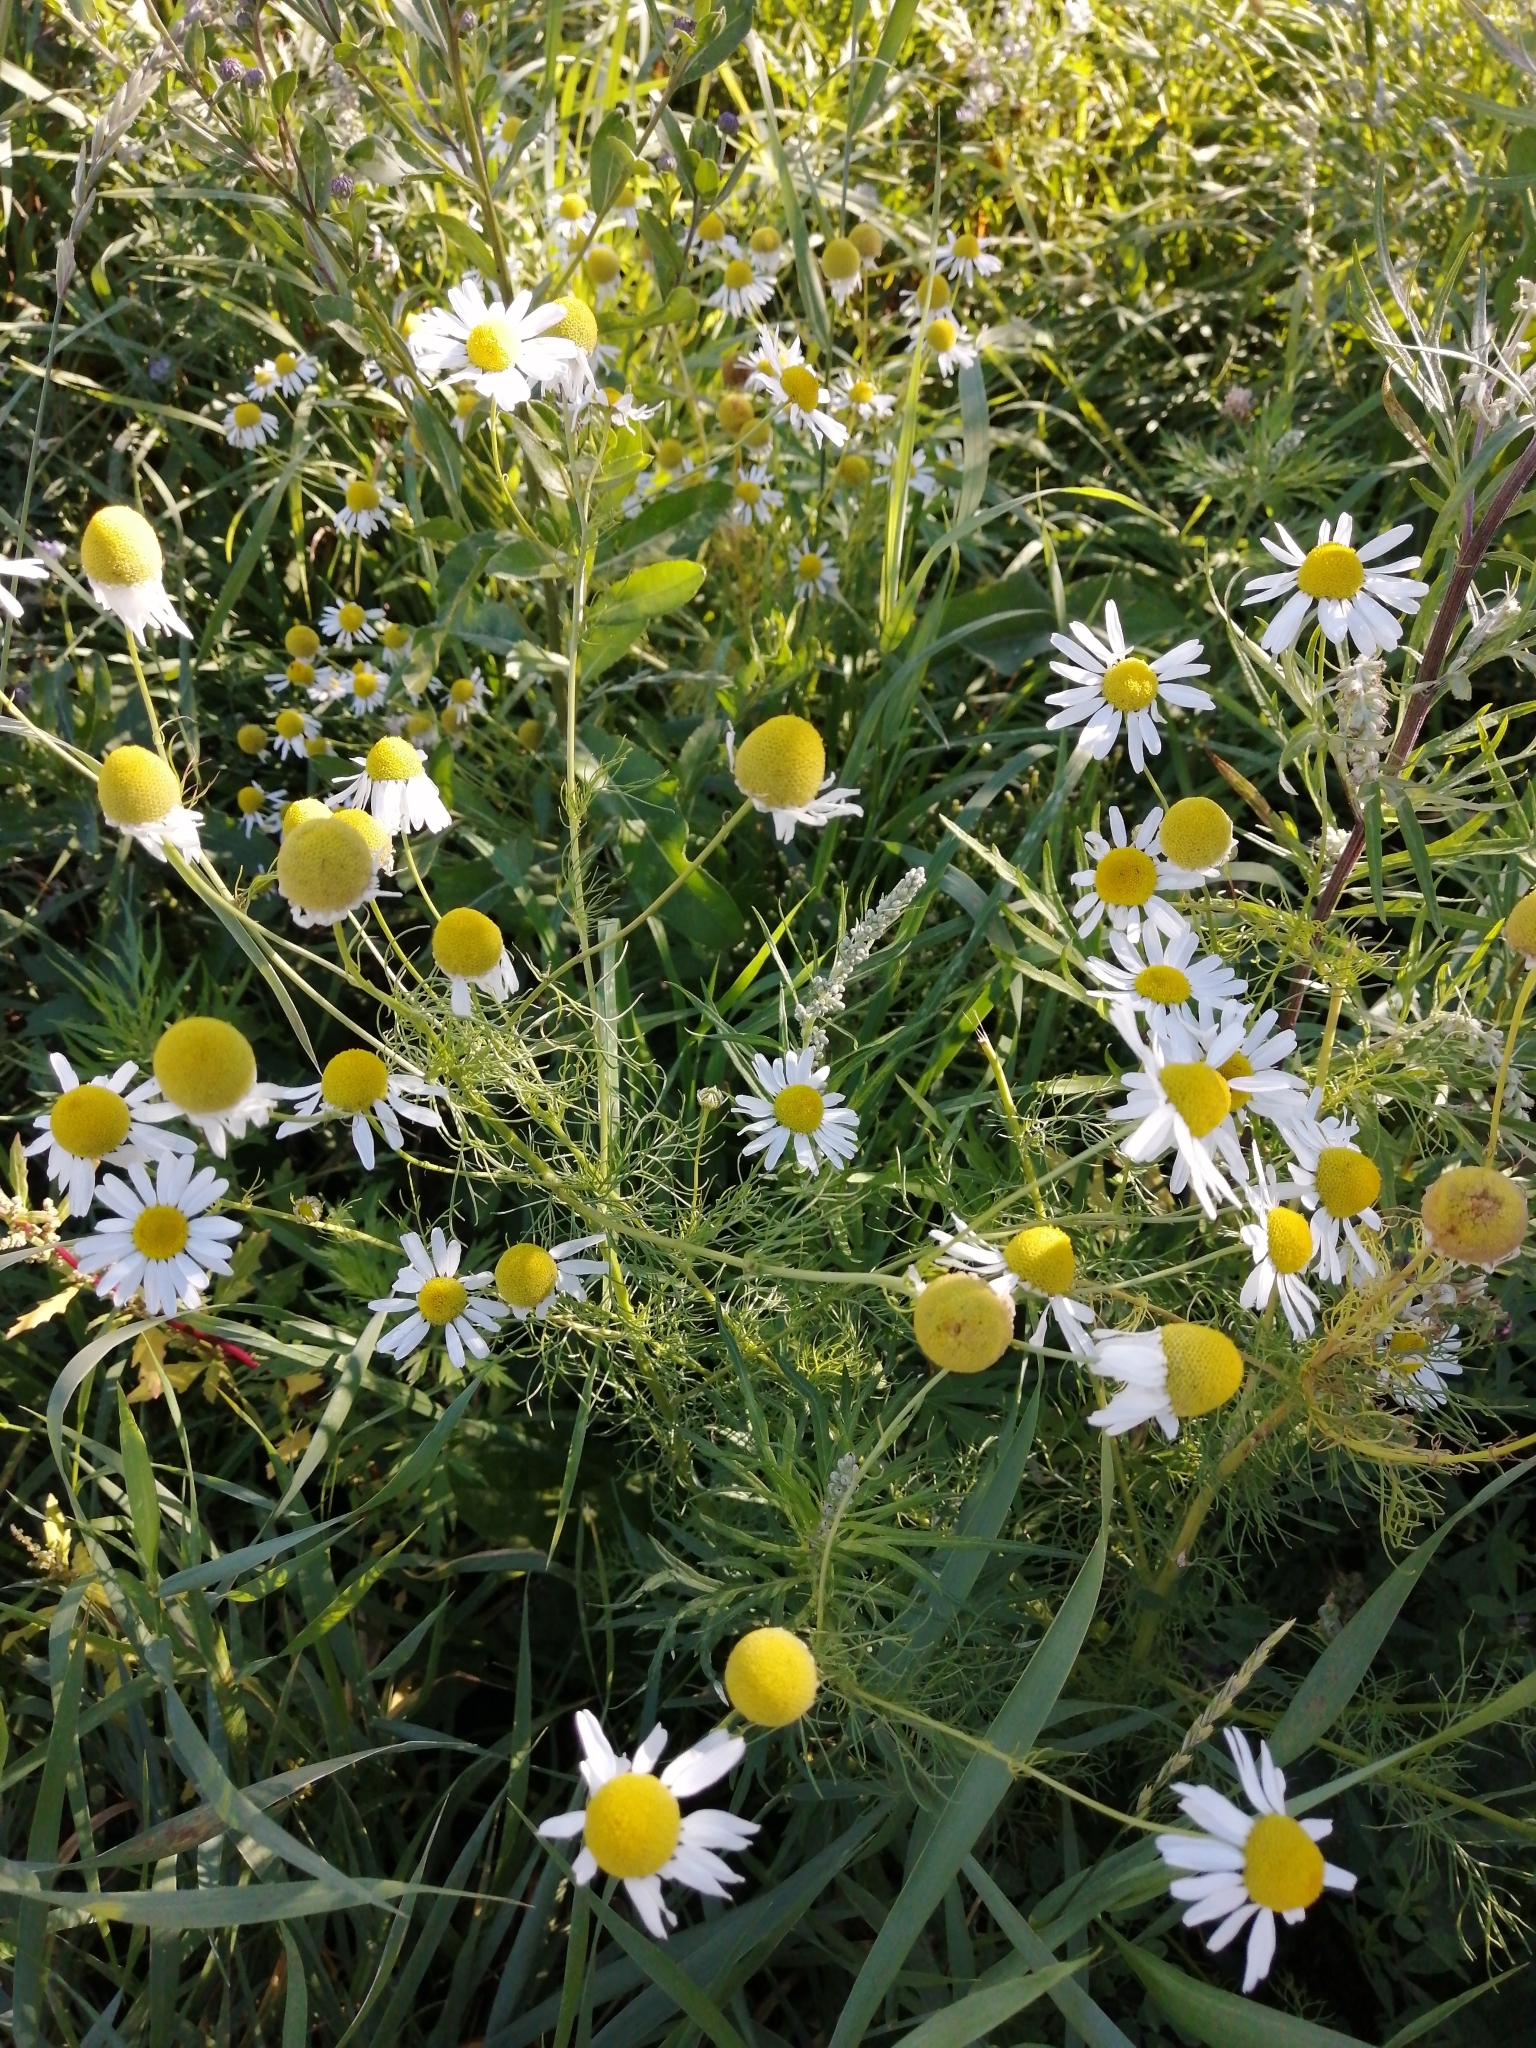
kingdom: Plantae
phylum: Tracheophyta
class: Magnoliopsida
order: Asterales
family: Asteraceae
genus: Tripleurospermum
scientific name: Tripleurospermum inodorum
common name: Scentless mayweed
